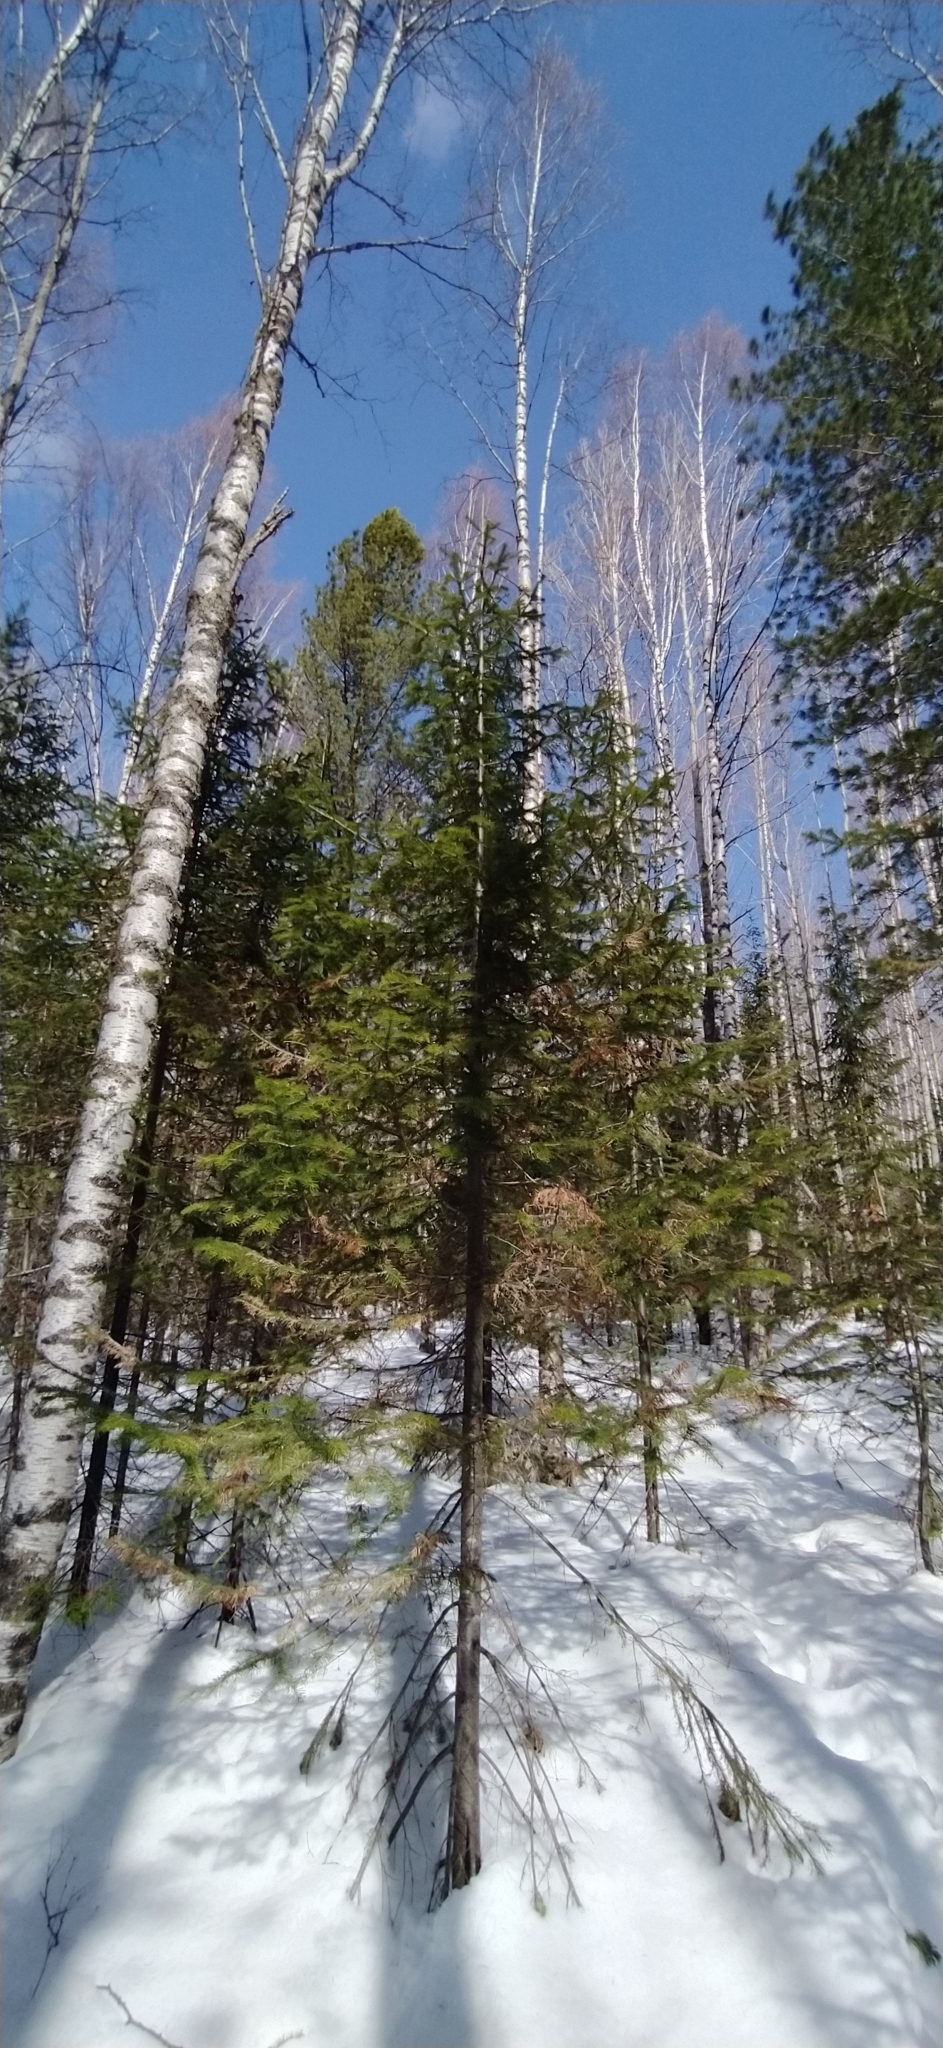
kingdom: Plantae
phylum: Tracheophyta
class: Pinopsida
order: Pinales
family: Pinaceae
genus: Abies
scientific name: Abies sibirica
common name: Siberian fir
